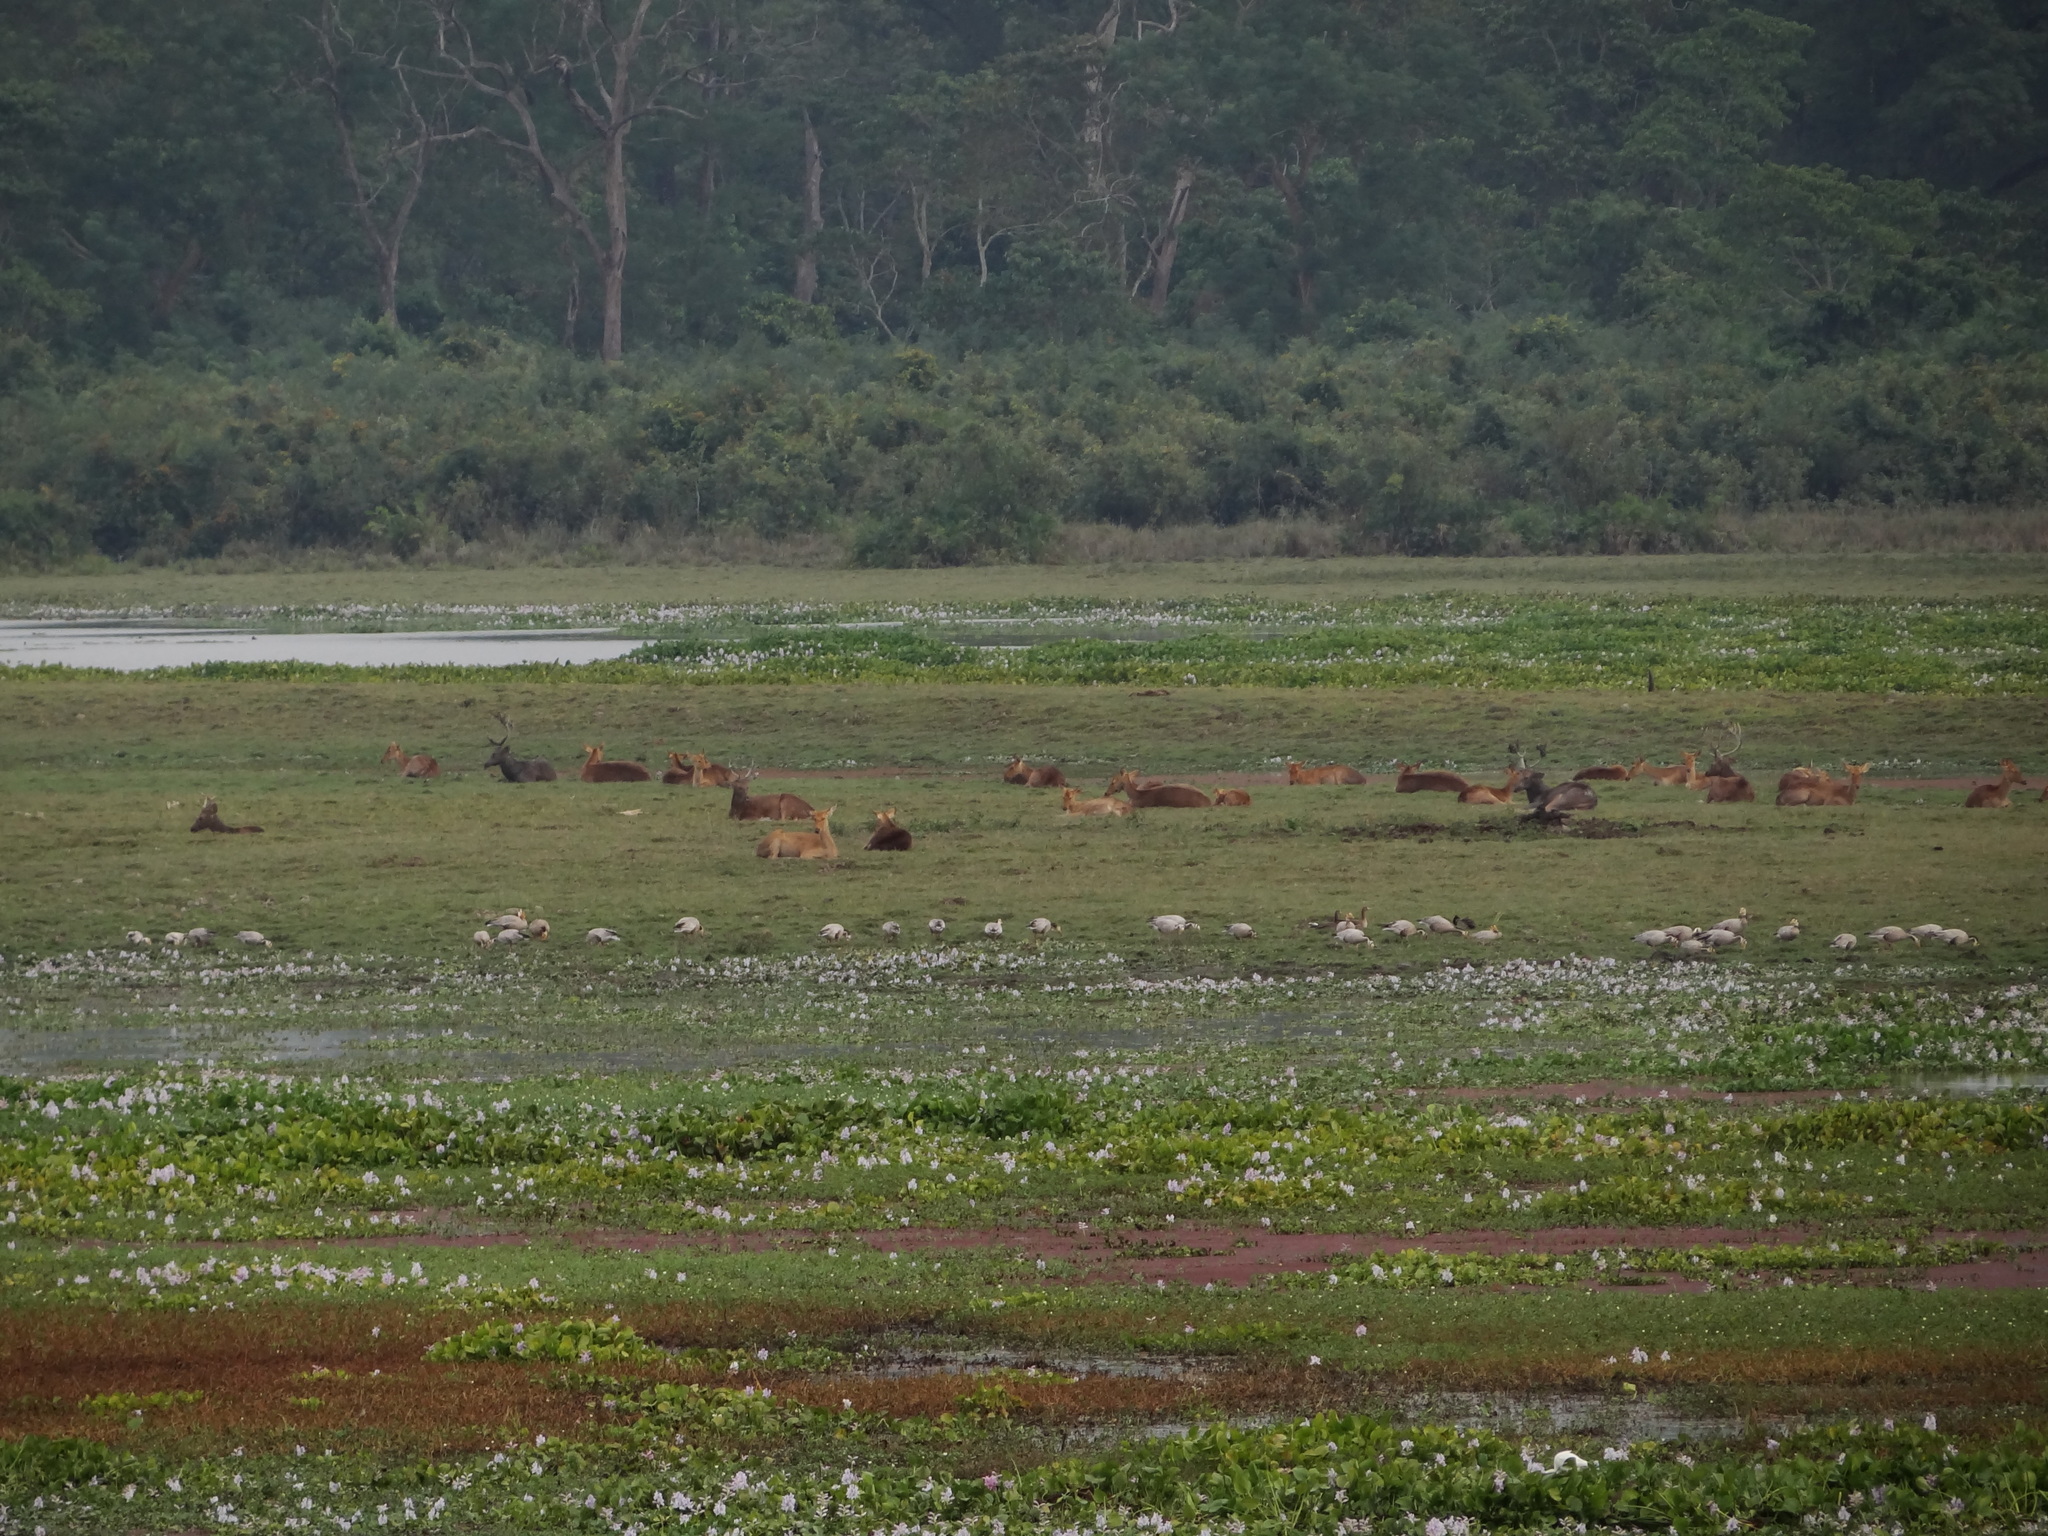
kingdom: Animalia
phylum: Chordata
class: Mammalia
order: Artiodactyla
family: Cervidae
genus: Rucervus
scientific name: Rucervus duvaucelii
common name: Barasingha
